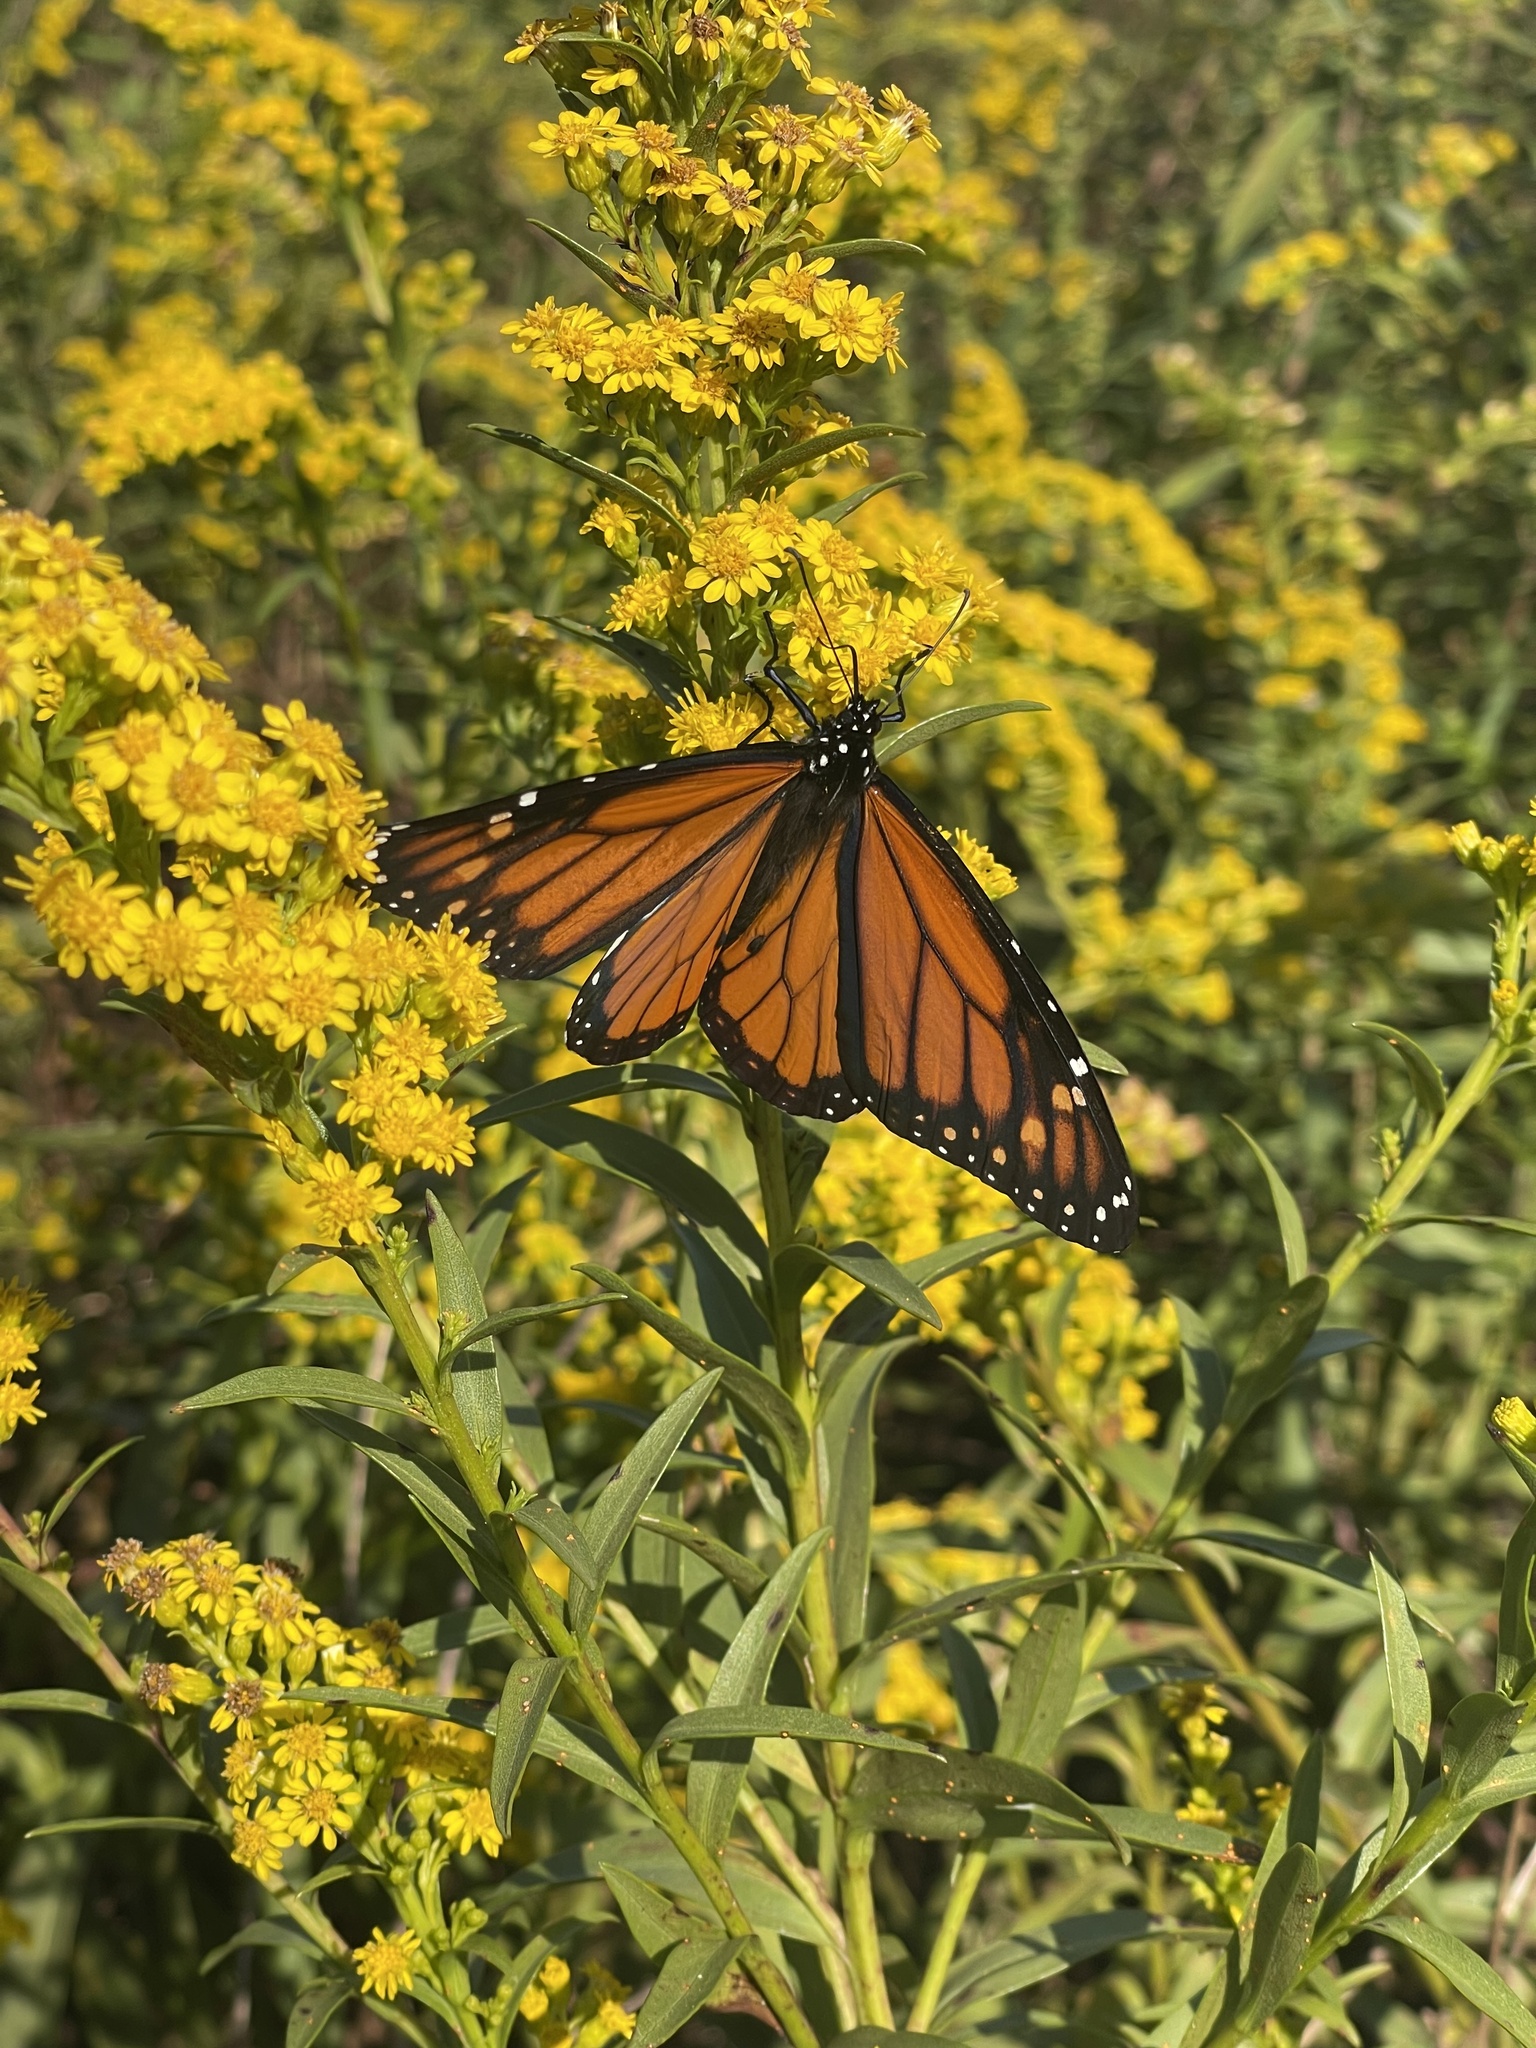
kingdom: Animalia
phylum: Arthropoda
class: Insecta
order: Lepidoptera
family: Nymphalidae
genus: Danaus
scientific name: Danaus plexippus
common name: Monarch
